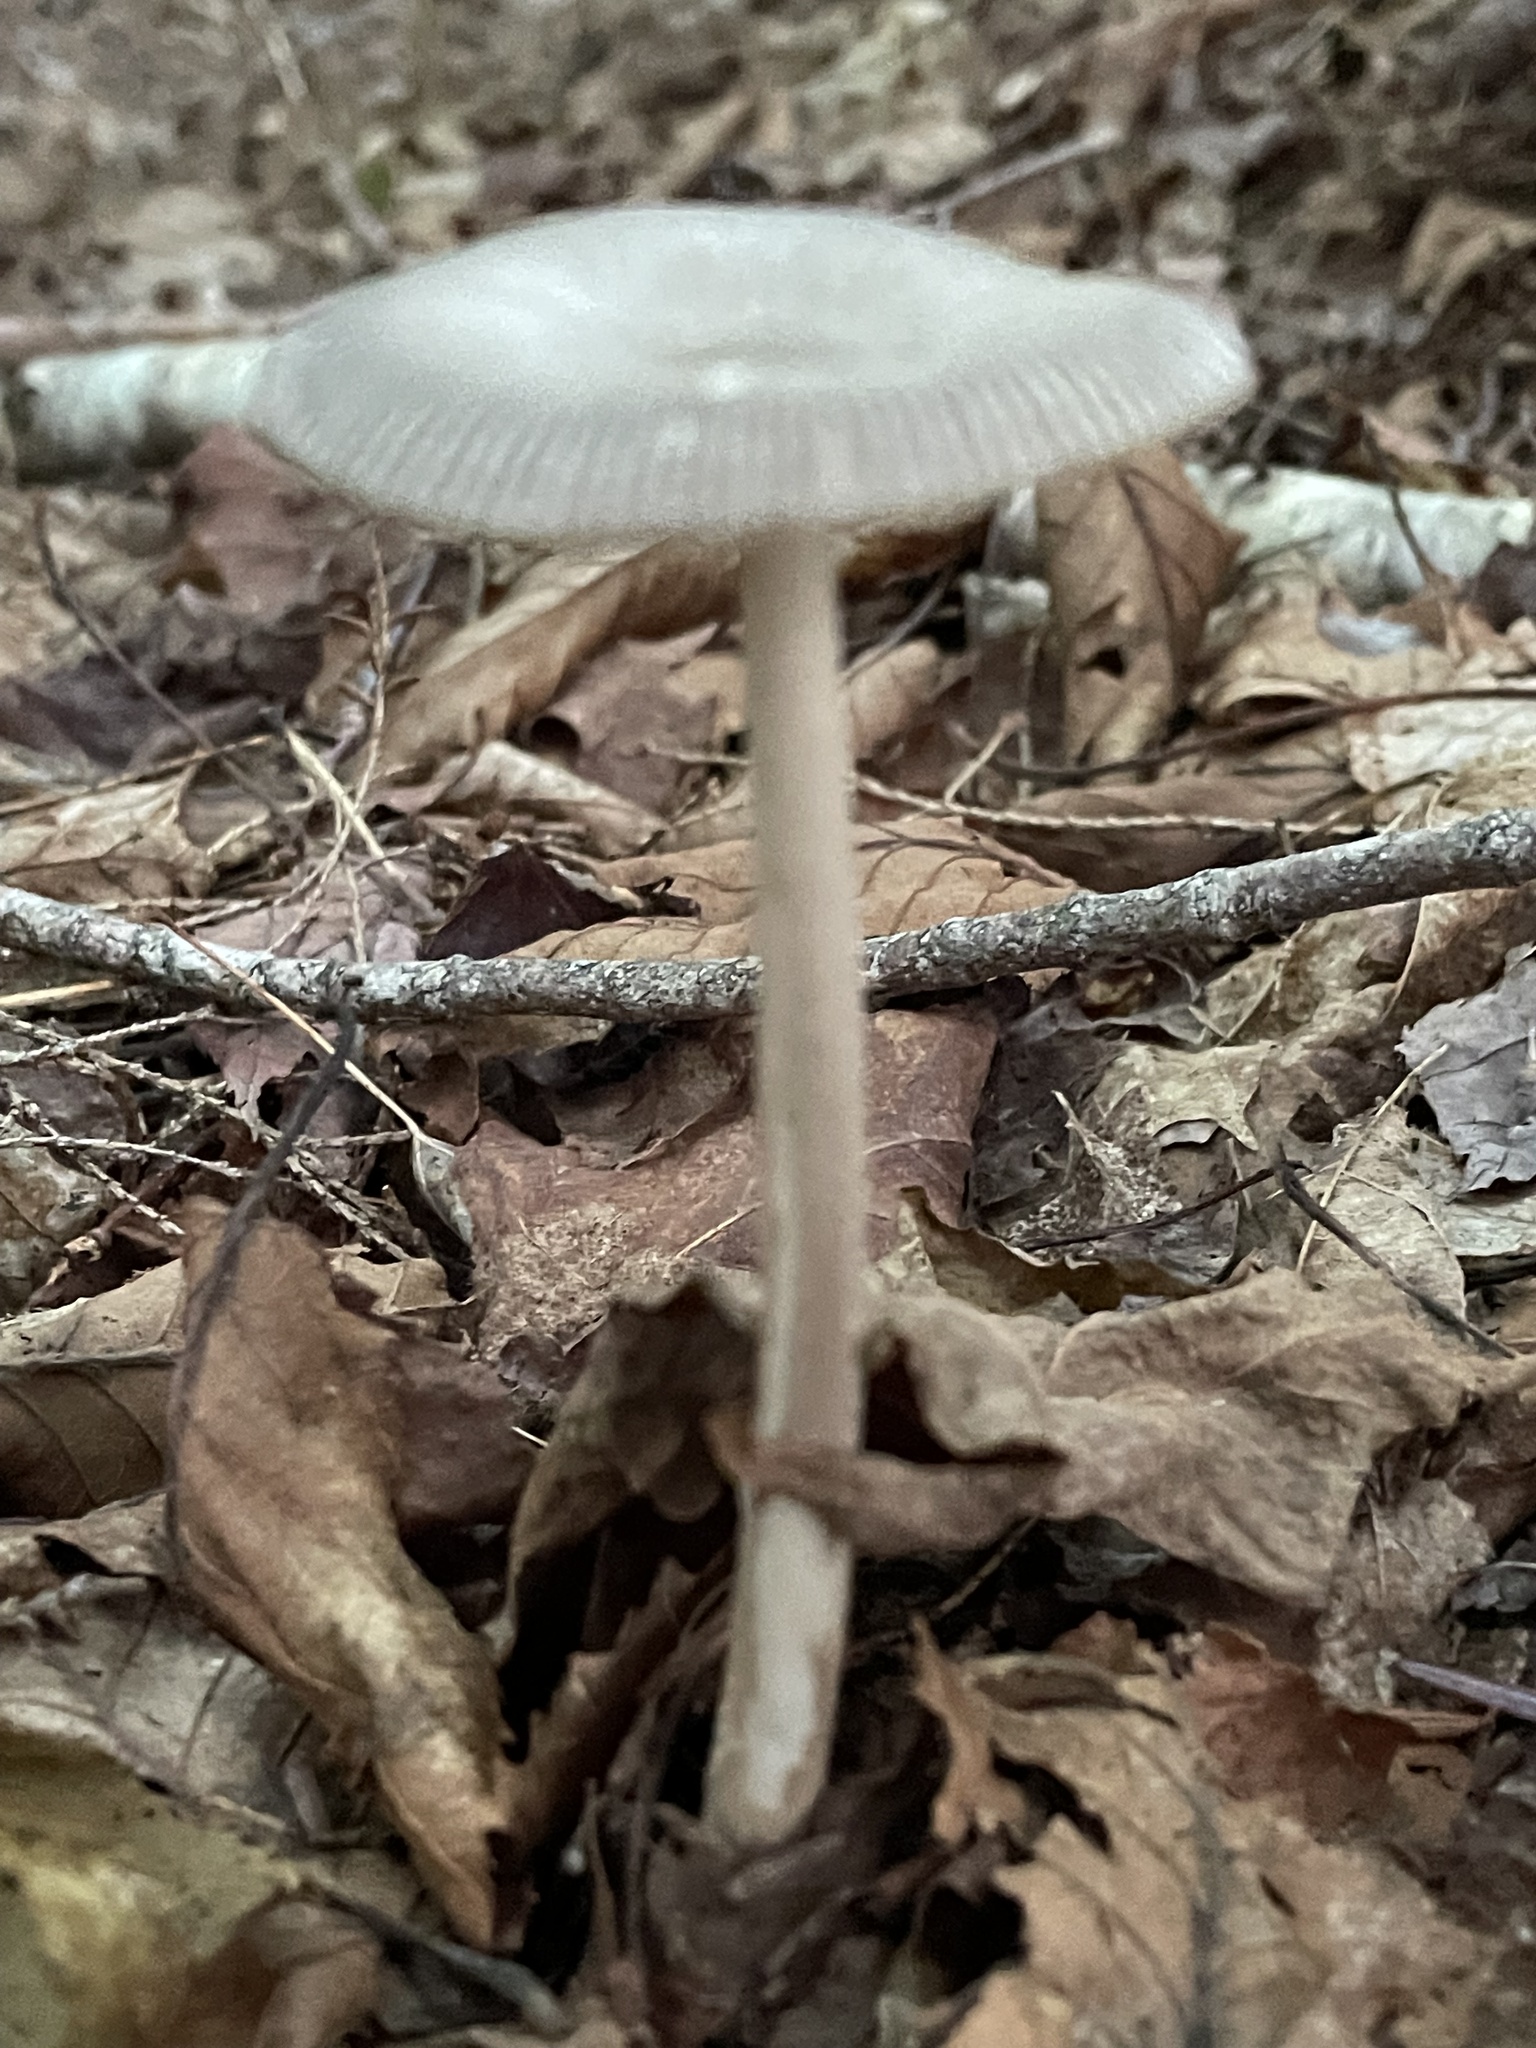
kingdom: Fungi
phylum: Basidiomycota
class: Agaricomycetes
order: Agaricales
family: Amanitaceae
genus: Amanita
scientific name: Amanita rhacopus
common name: Shaggy legged ringless amanita
